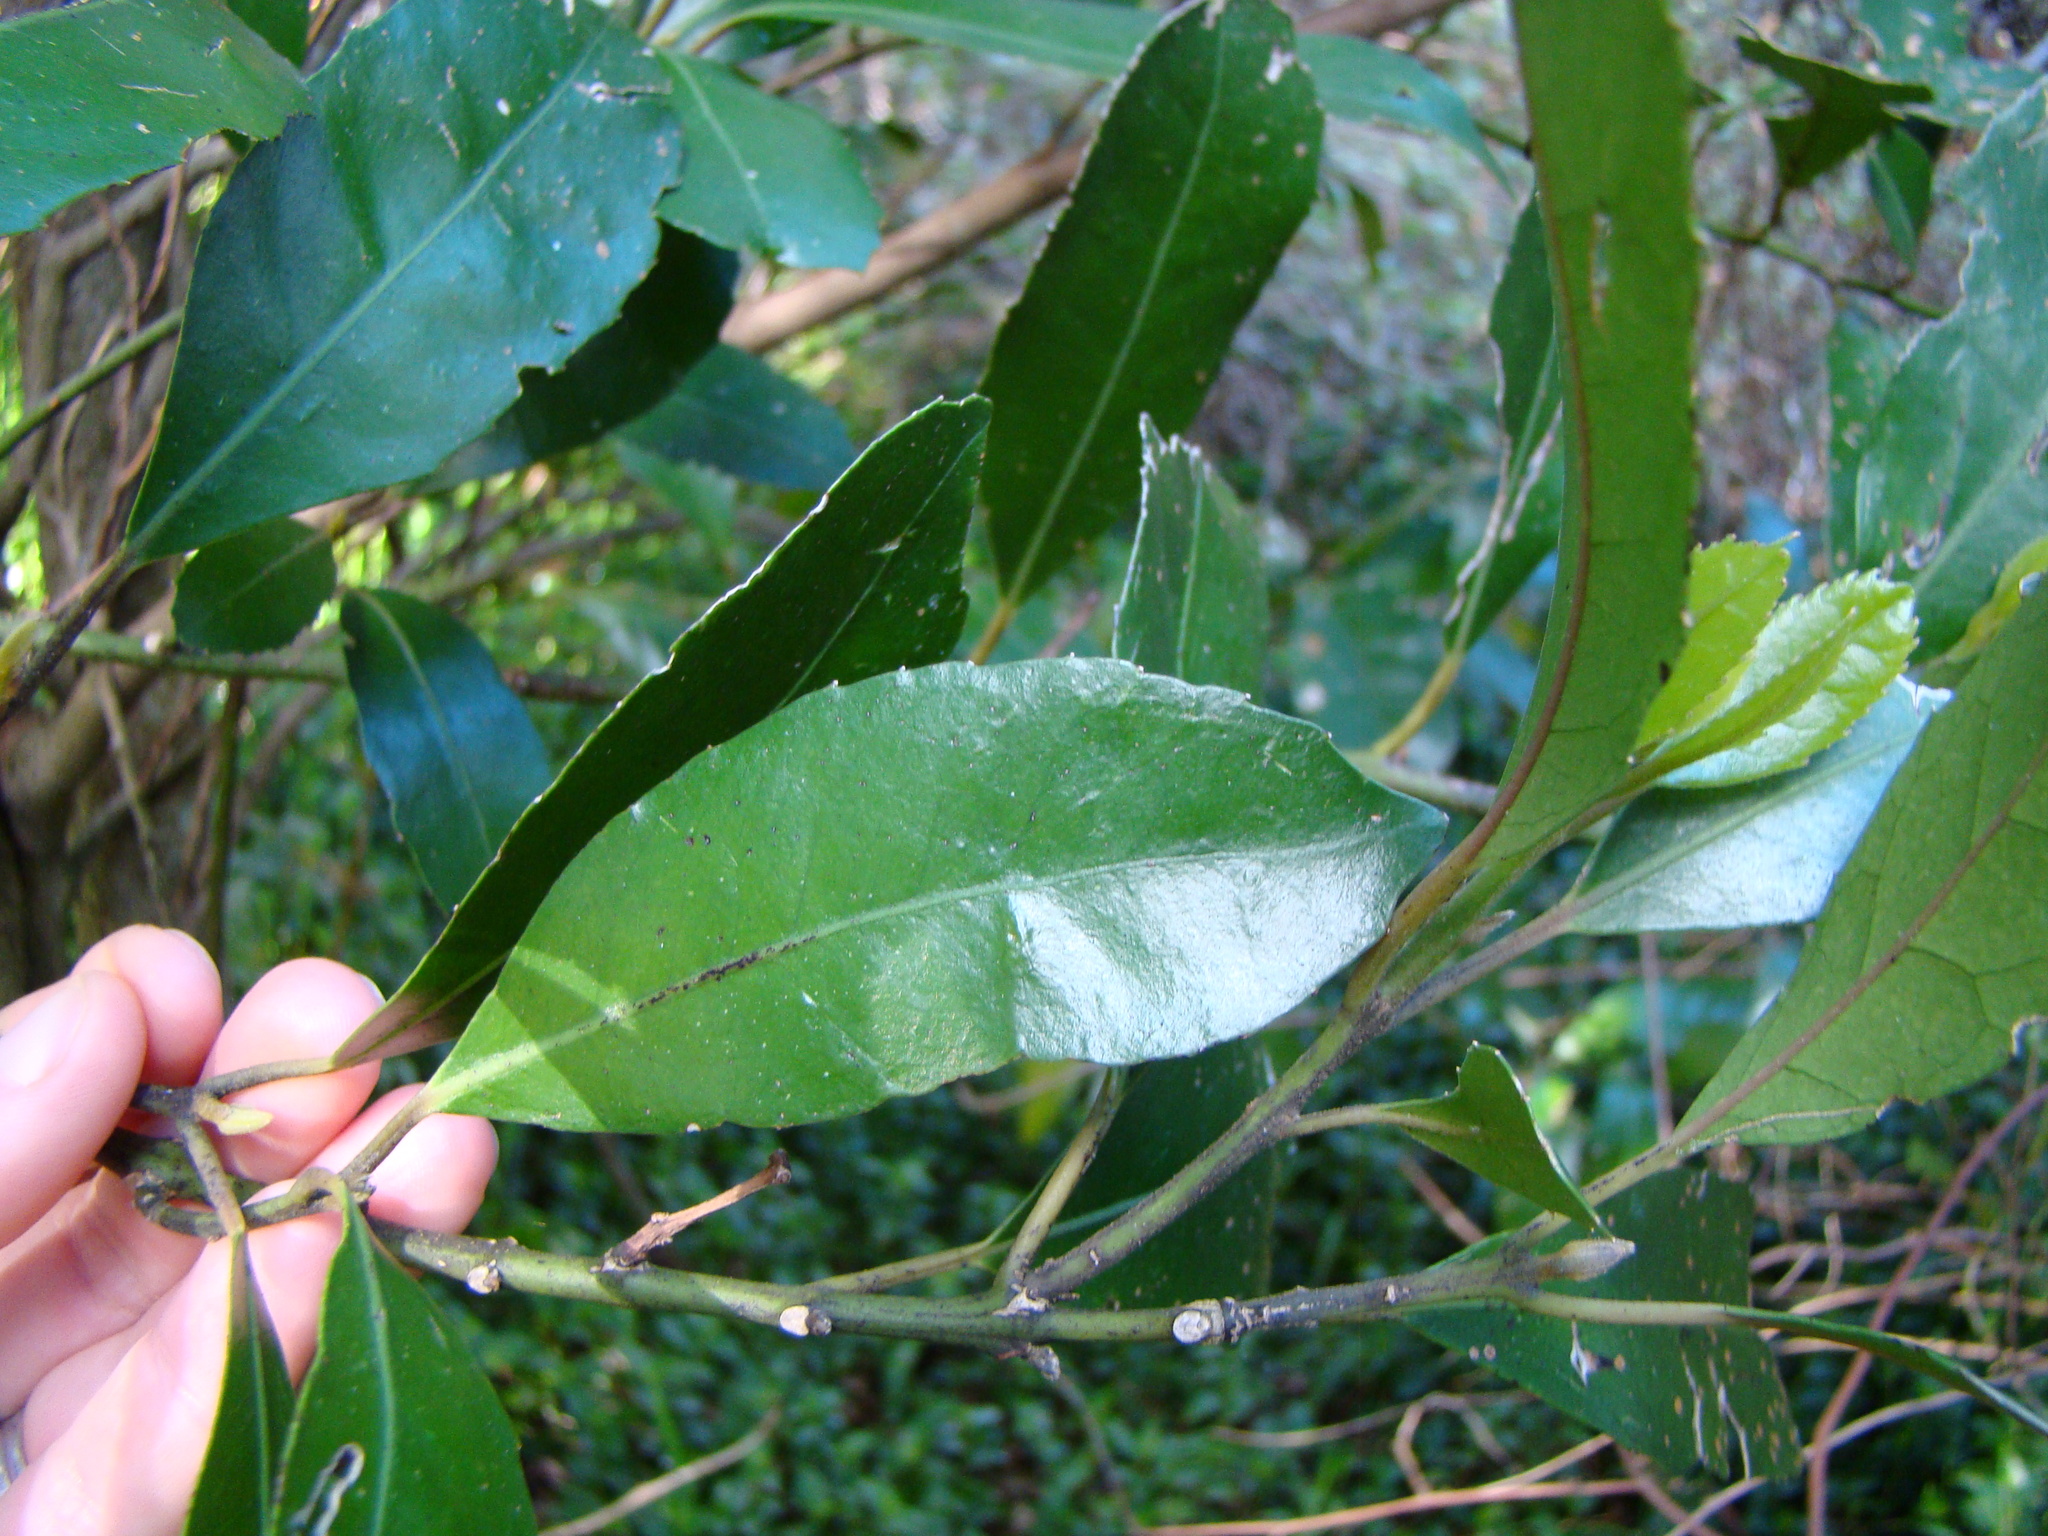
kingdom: Plantae
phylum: Tracheophyta
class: Magnoliopsida
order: Laurales
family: Monimiaceae
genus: Hedycarya
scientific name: Hedycarya arborea
